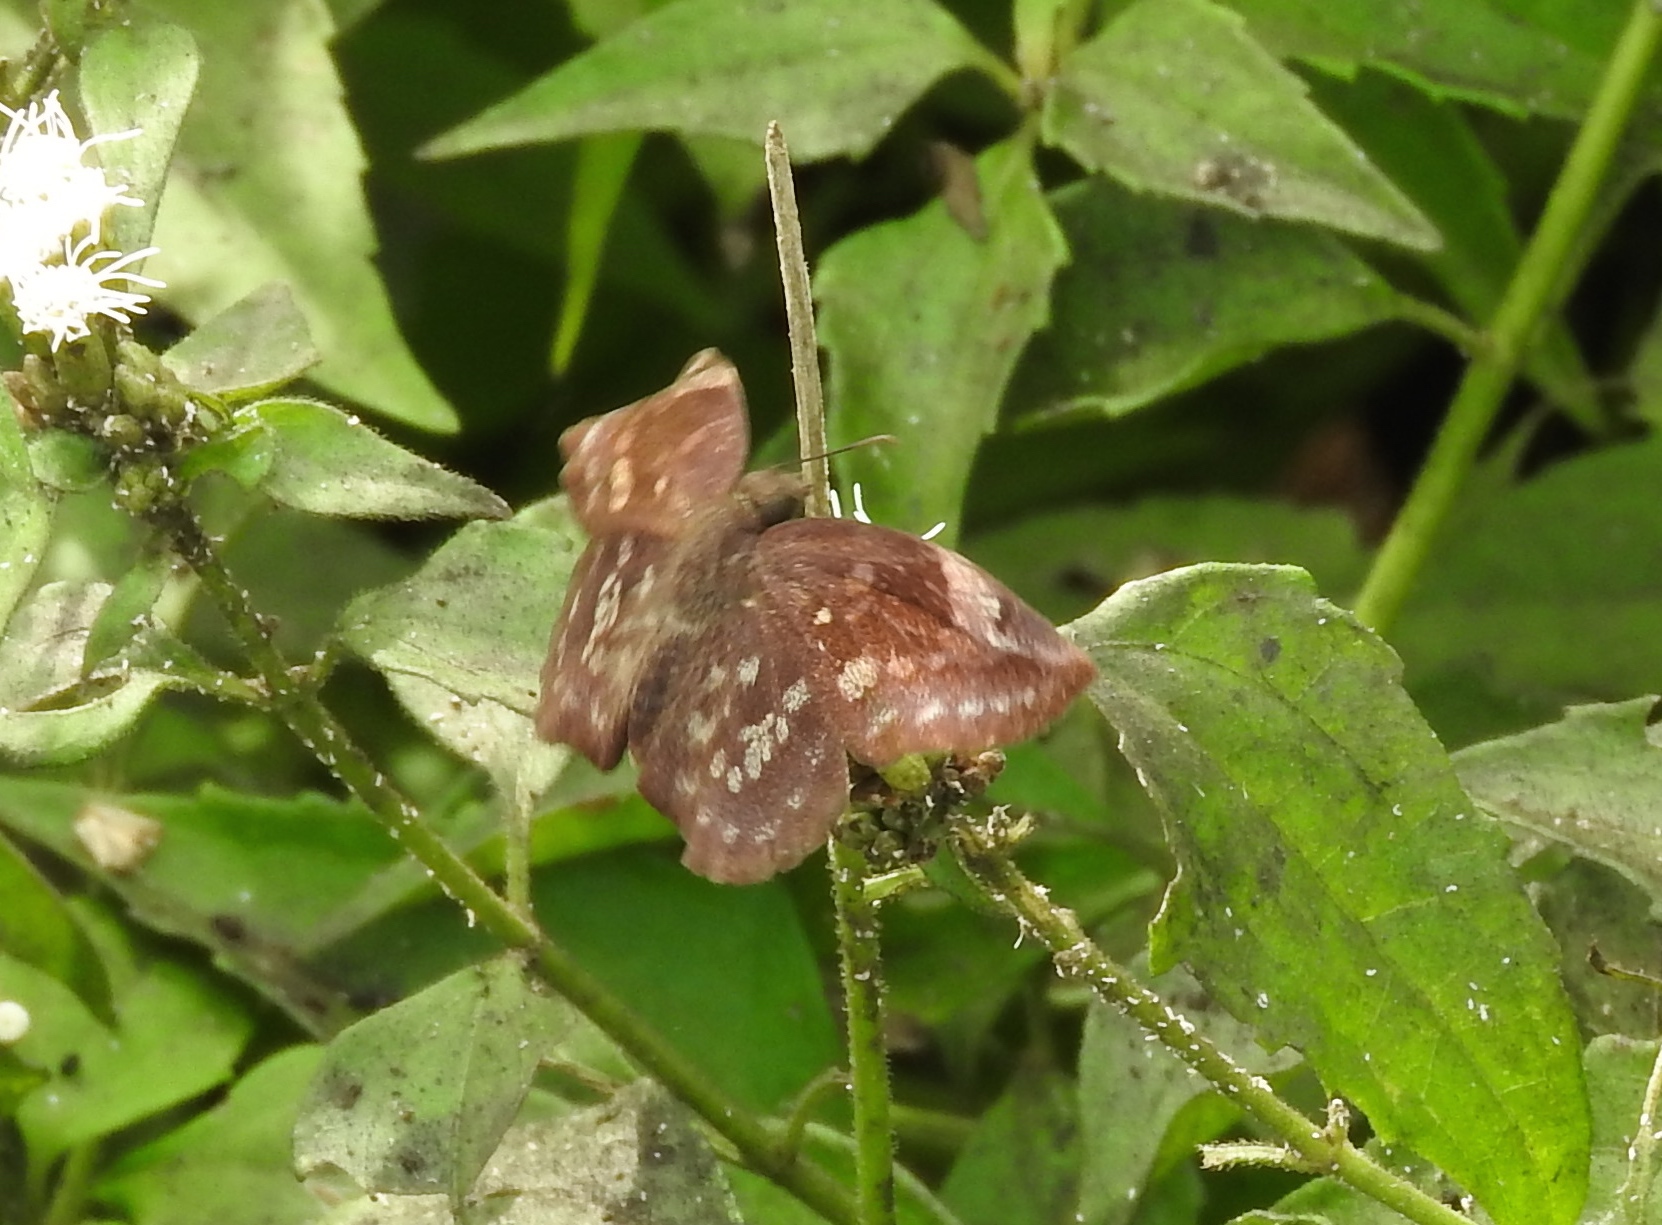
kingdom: Animalia
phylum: Arthropoda
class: Insecta
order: Lepidoptera
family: Hesperiidae
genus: Achlyodes
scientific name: Achlyodes thraso
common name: Sickle-winged skipper
